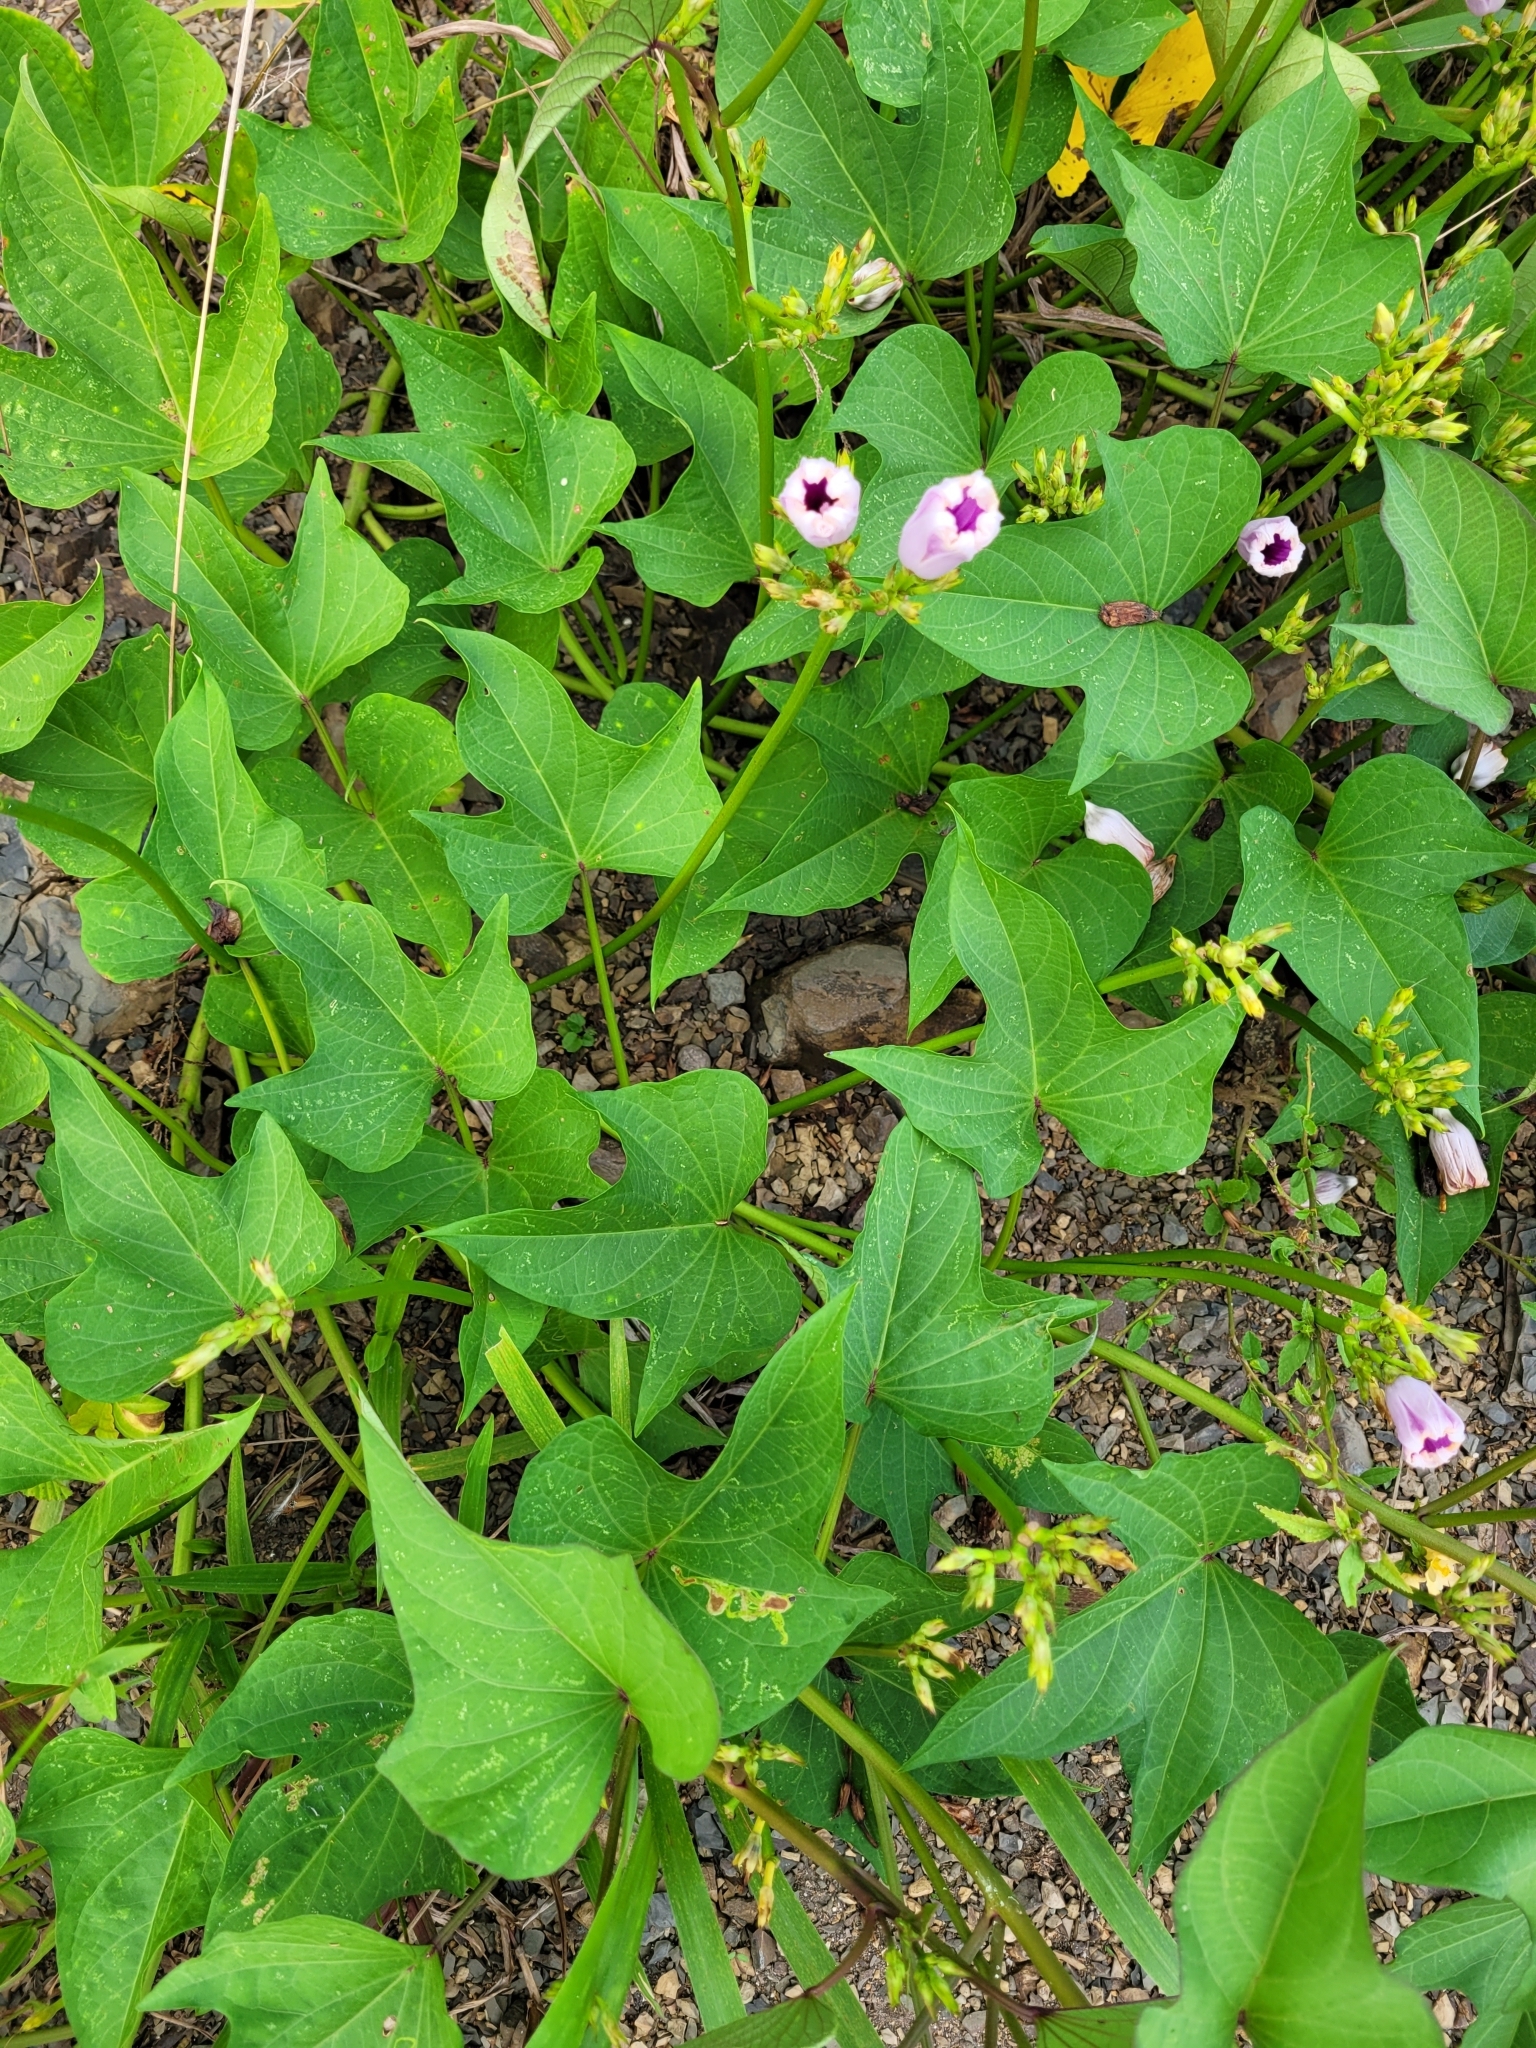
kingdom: Plantae
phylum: Tracheophyta
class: Magnoliopsida
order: Solanales
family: Convolvulaceae
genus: Ipomoea
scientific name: Ipomoea batatas
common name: Sweet-potato
